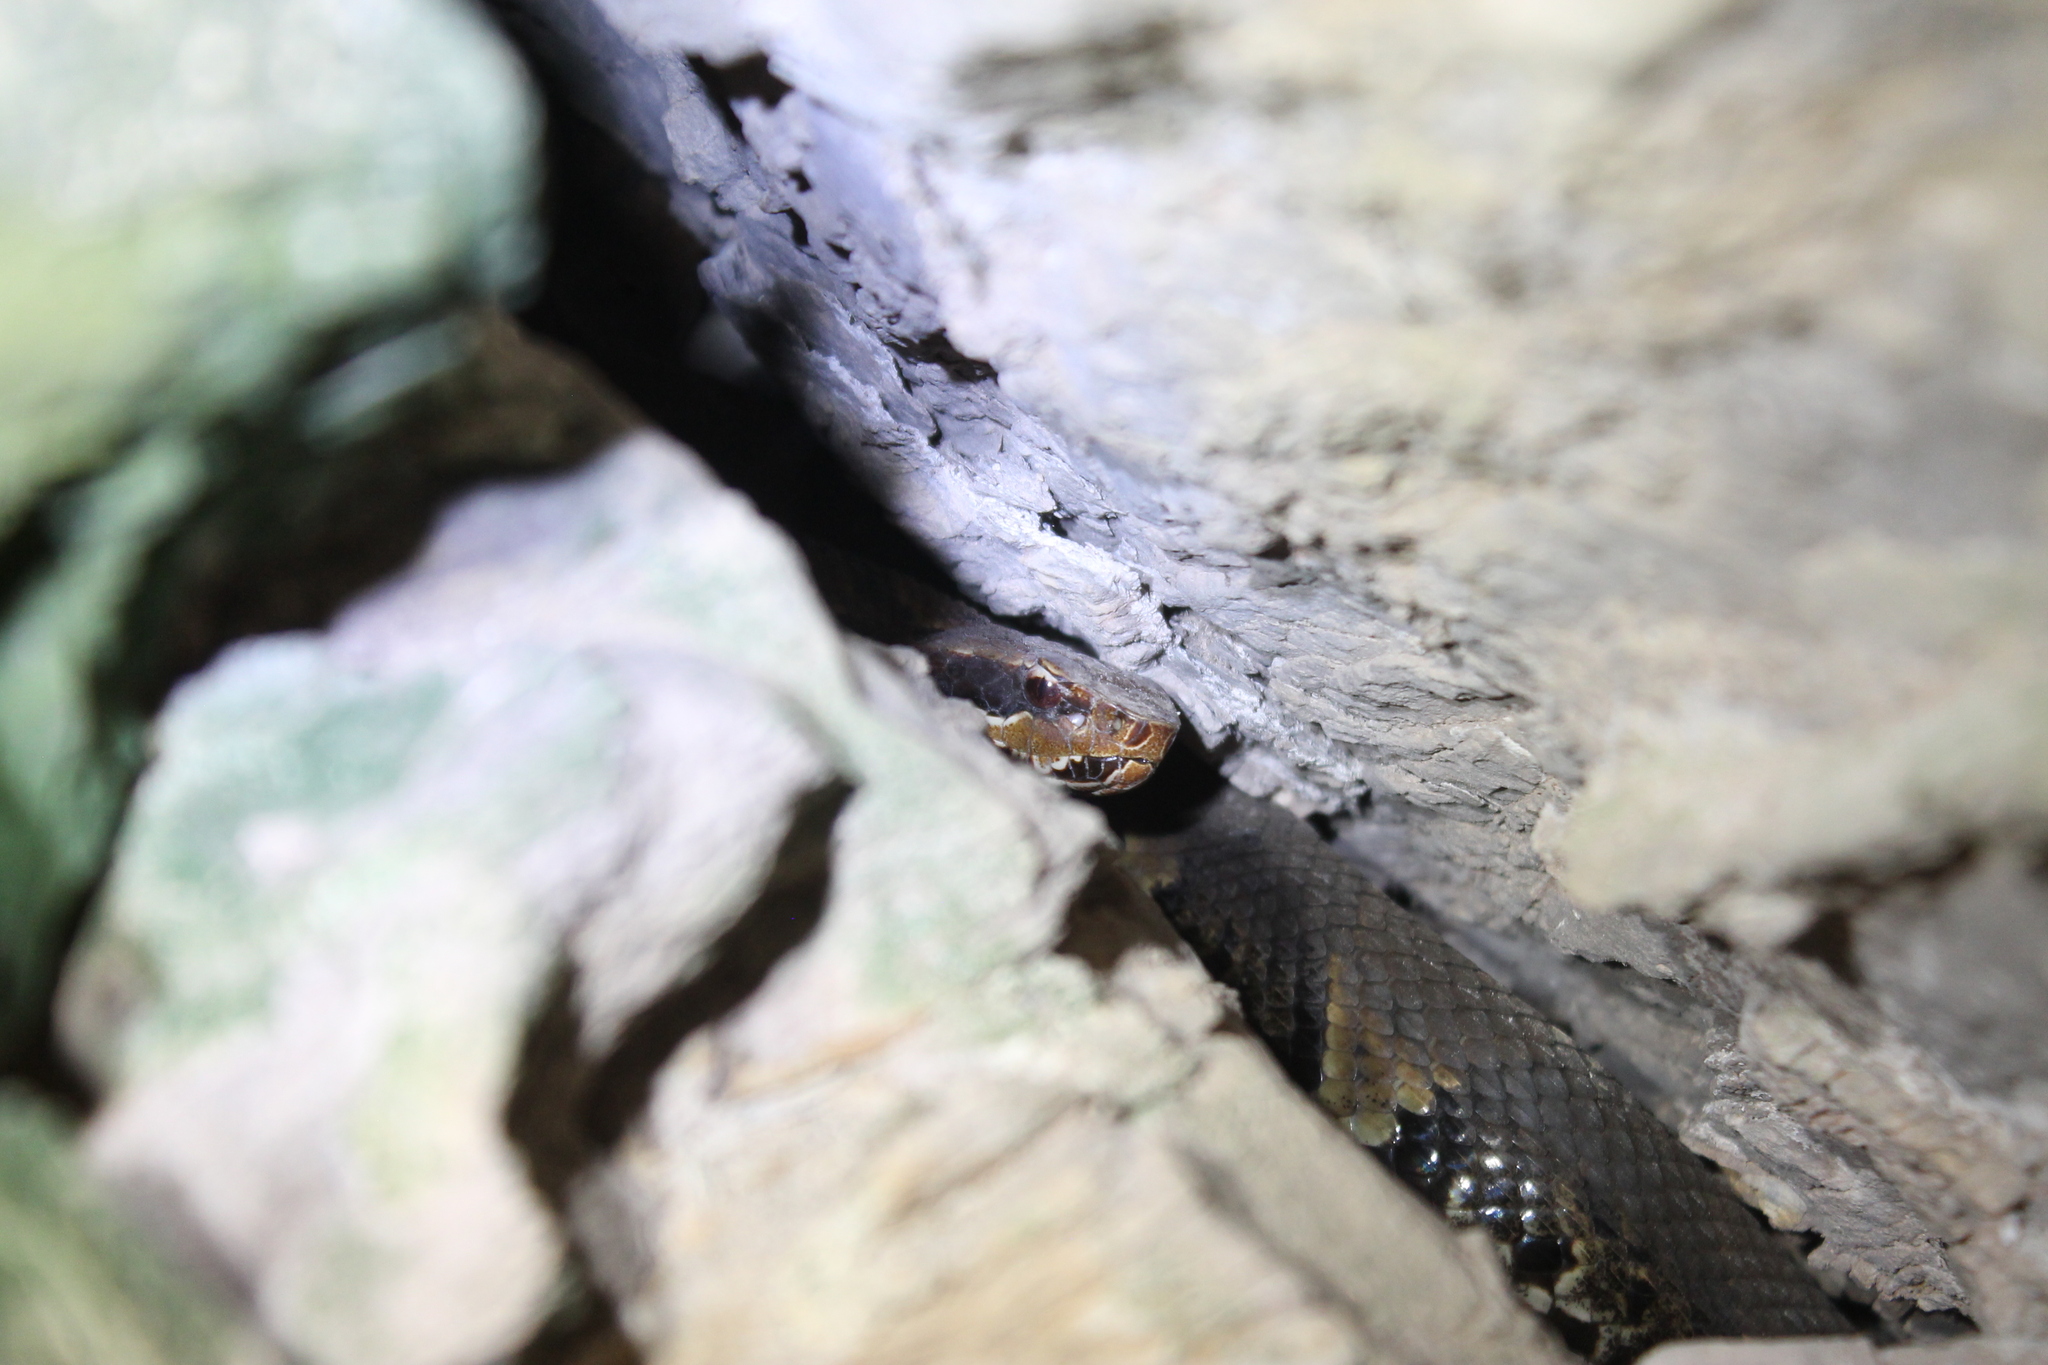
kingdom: Animalia
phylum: Chordata
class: Squamata
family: Viperidae
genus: Agkistrodon
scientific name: Agkistrodon piscivorus
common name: Cottonmouth
